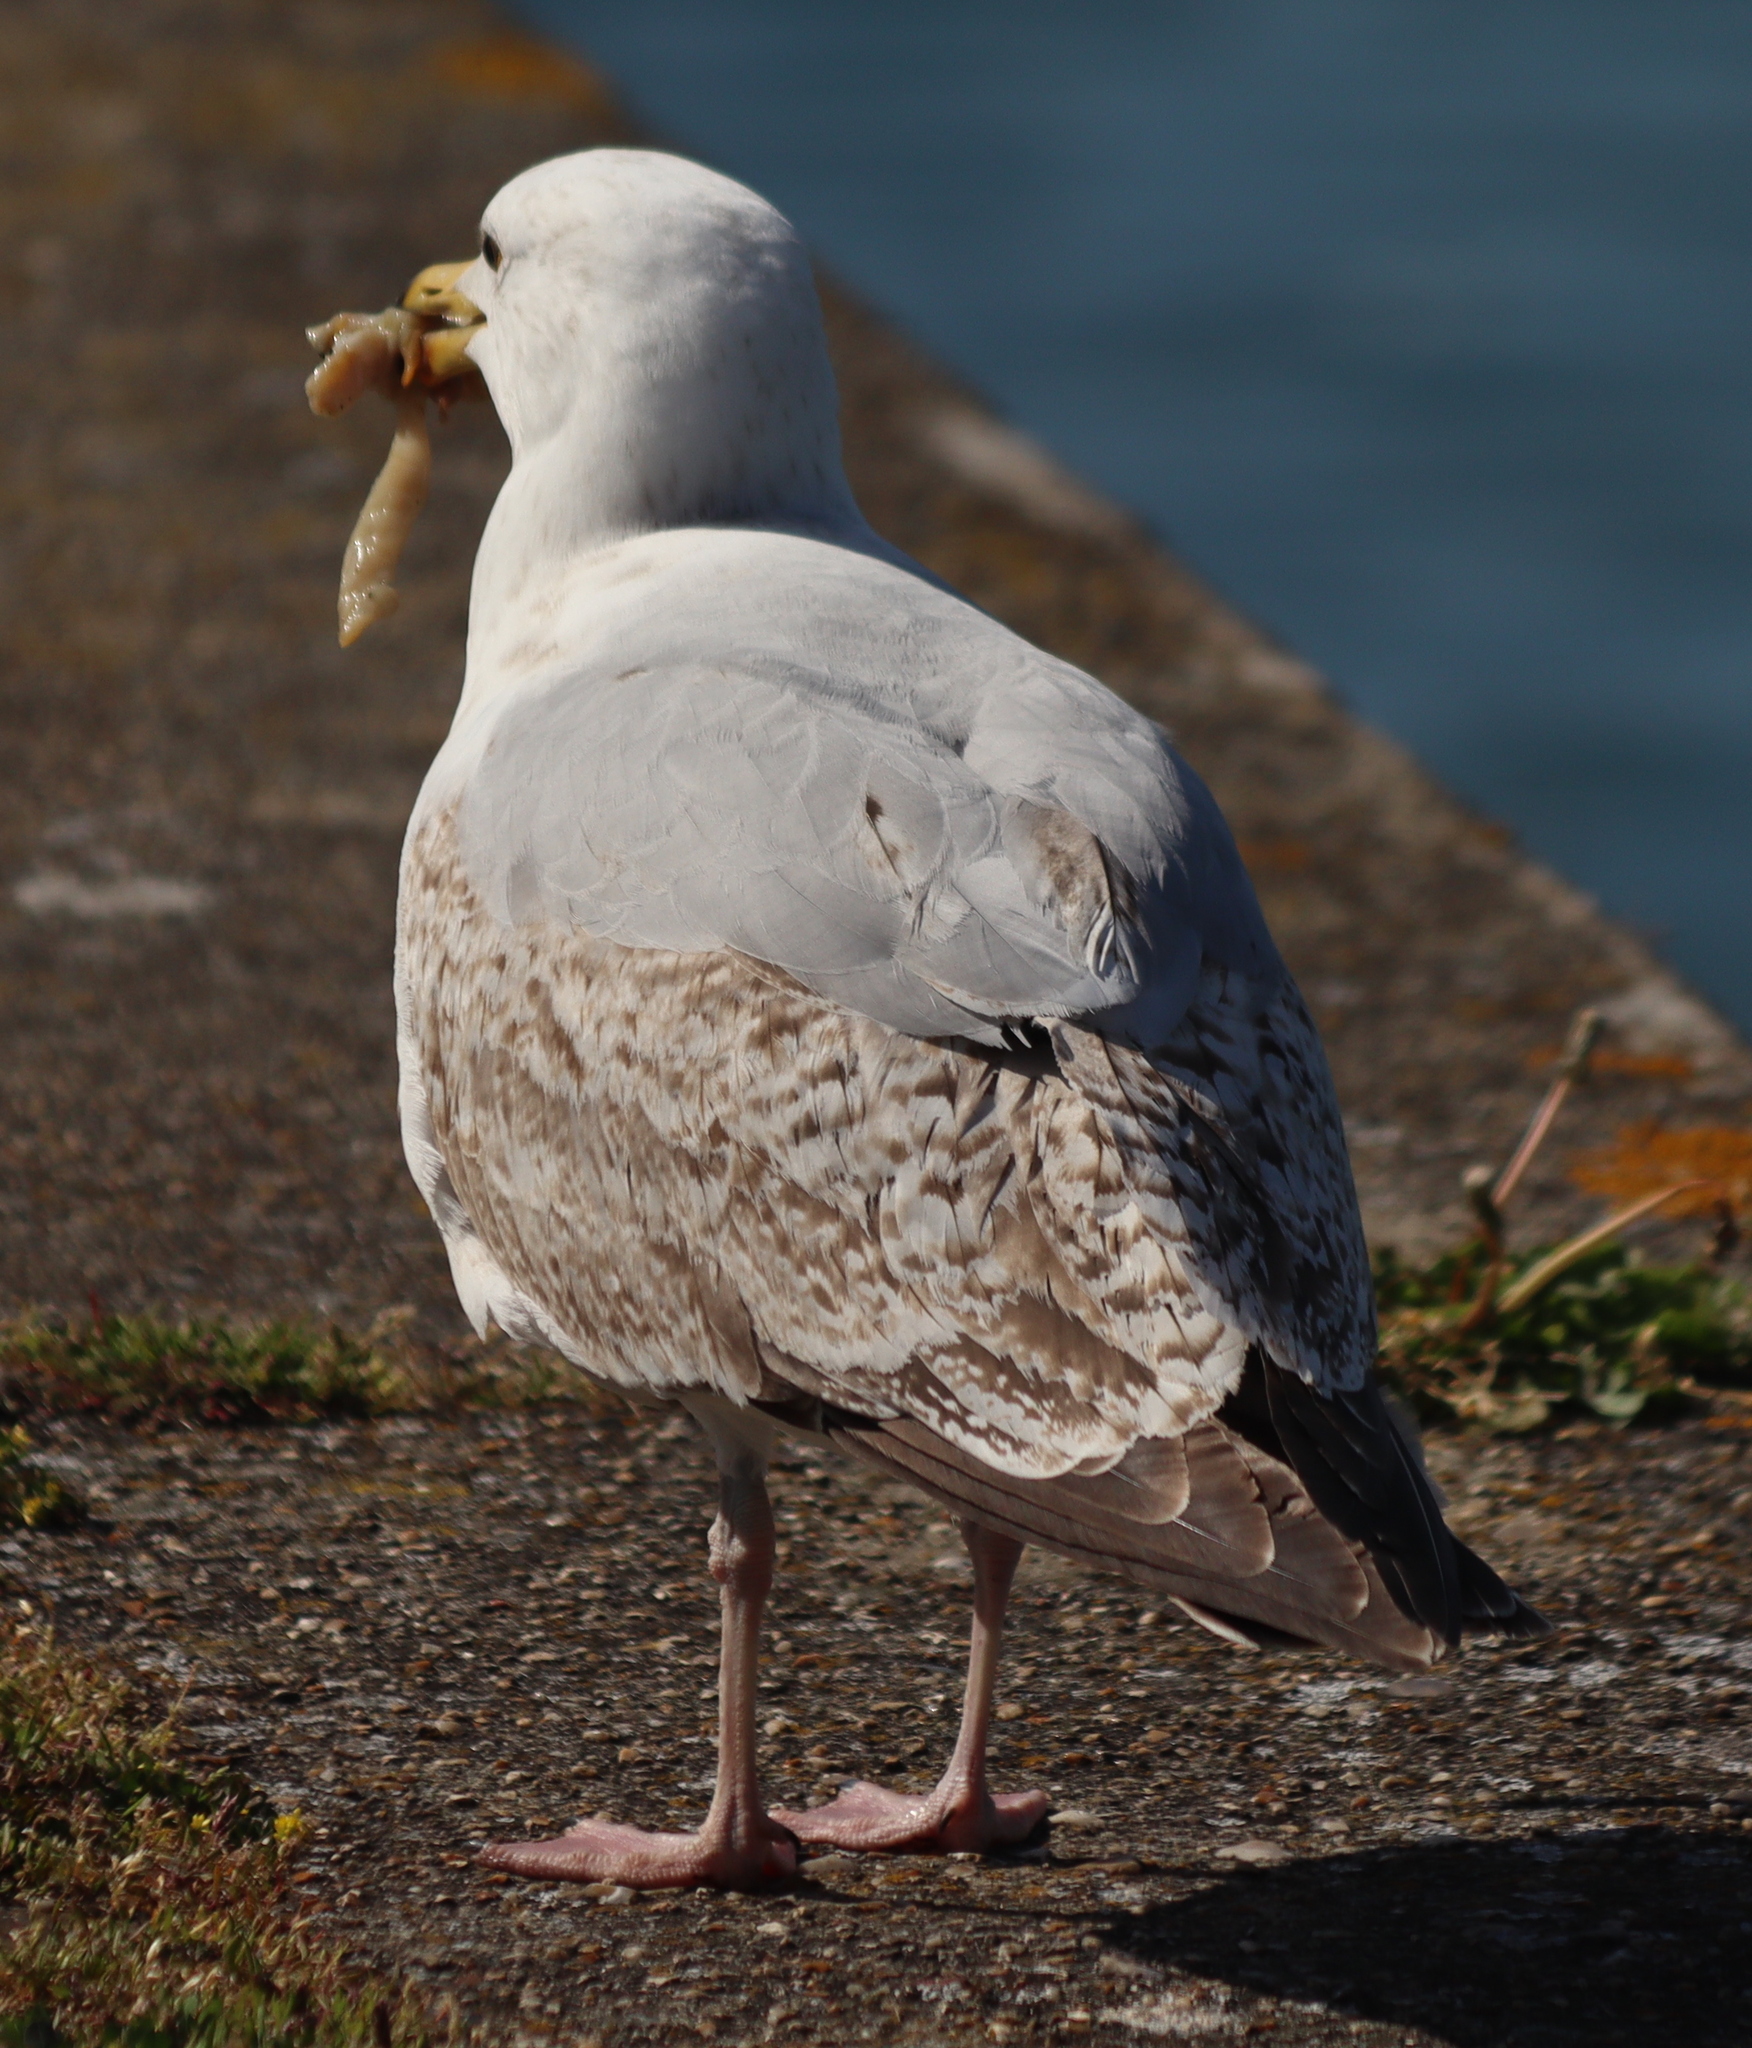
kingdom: Animalia
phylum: Chordata
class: Aves
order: Charadriiformes
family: Laridae
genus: Larus
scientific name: Larus argentatus
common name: Herring gull
